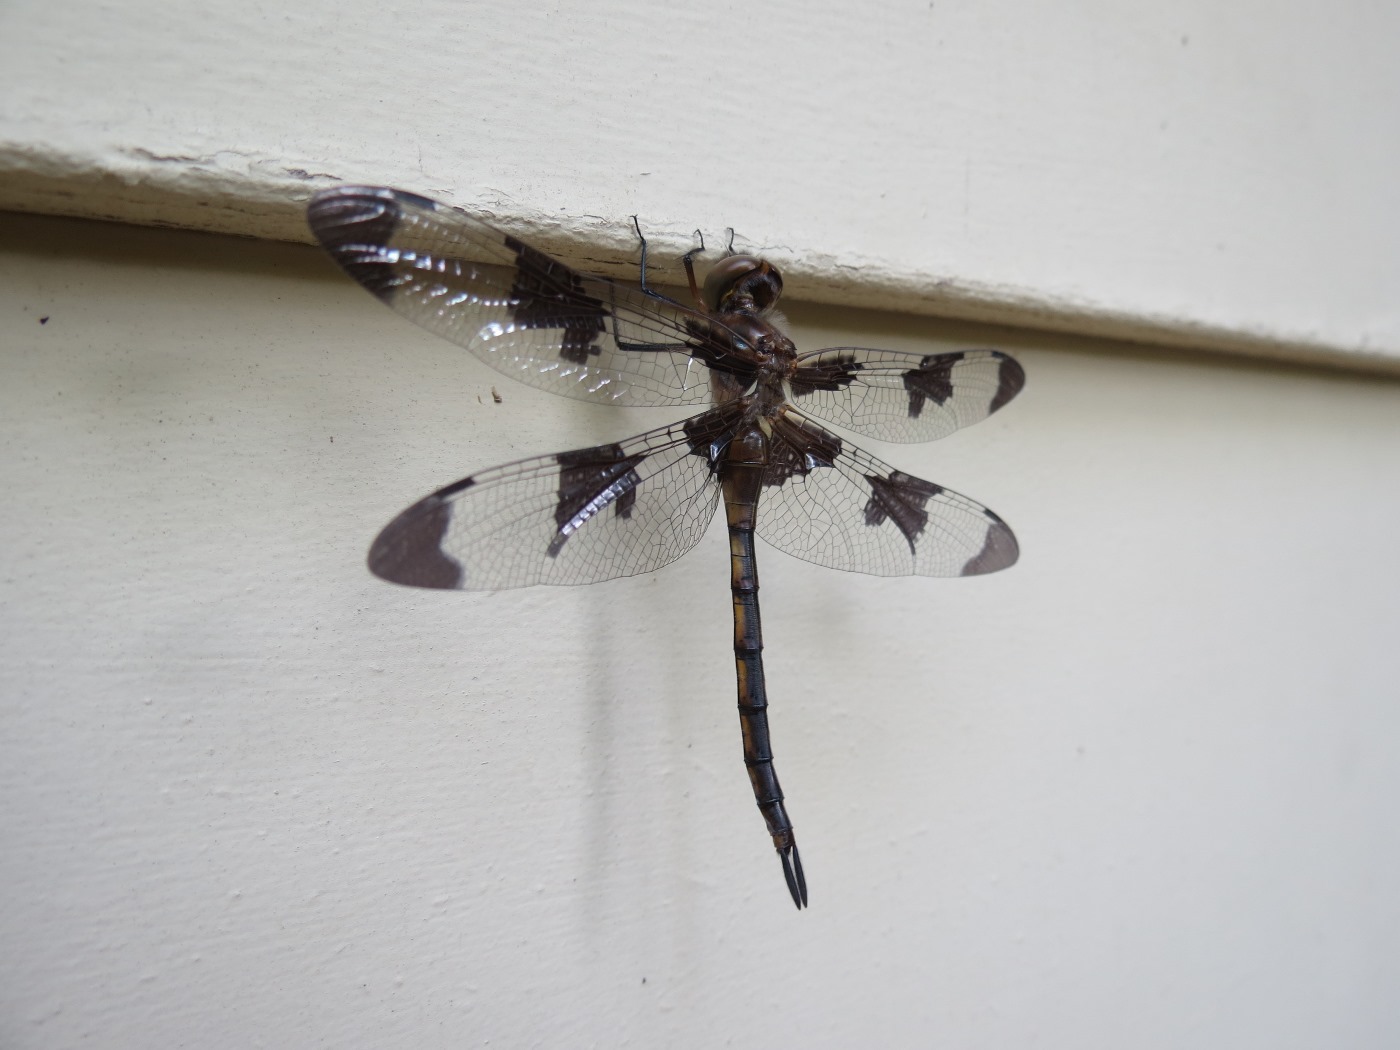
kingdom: Animalia
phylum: Arthropoda
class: Insecta
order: Odonata
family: Corduliidae
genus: Epitheca
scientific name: Epitheca princeps
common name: Prince baskettail
